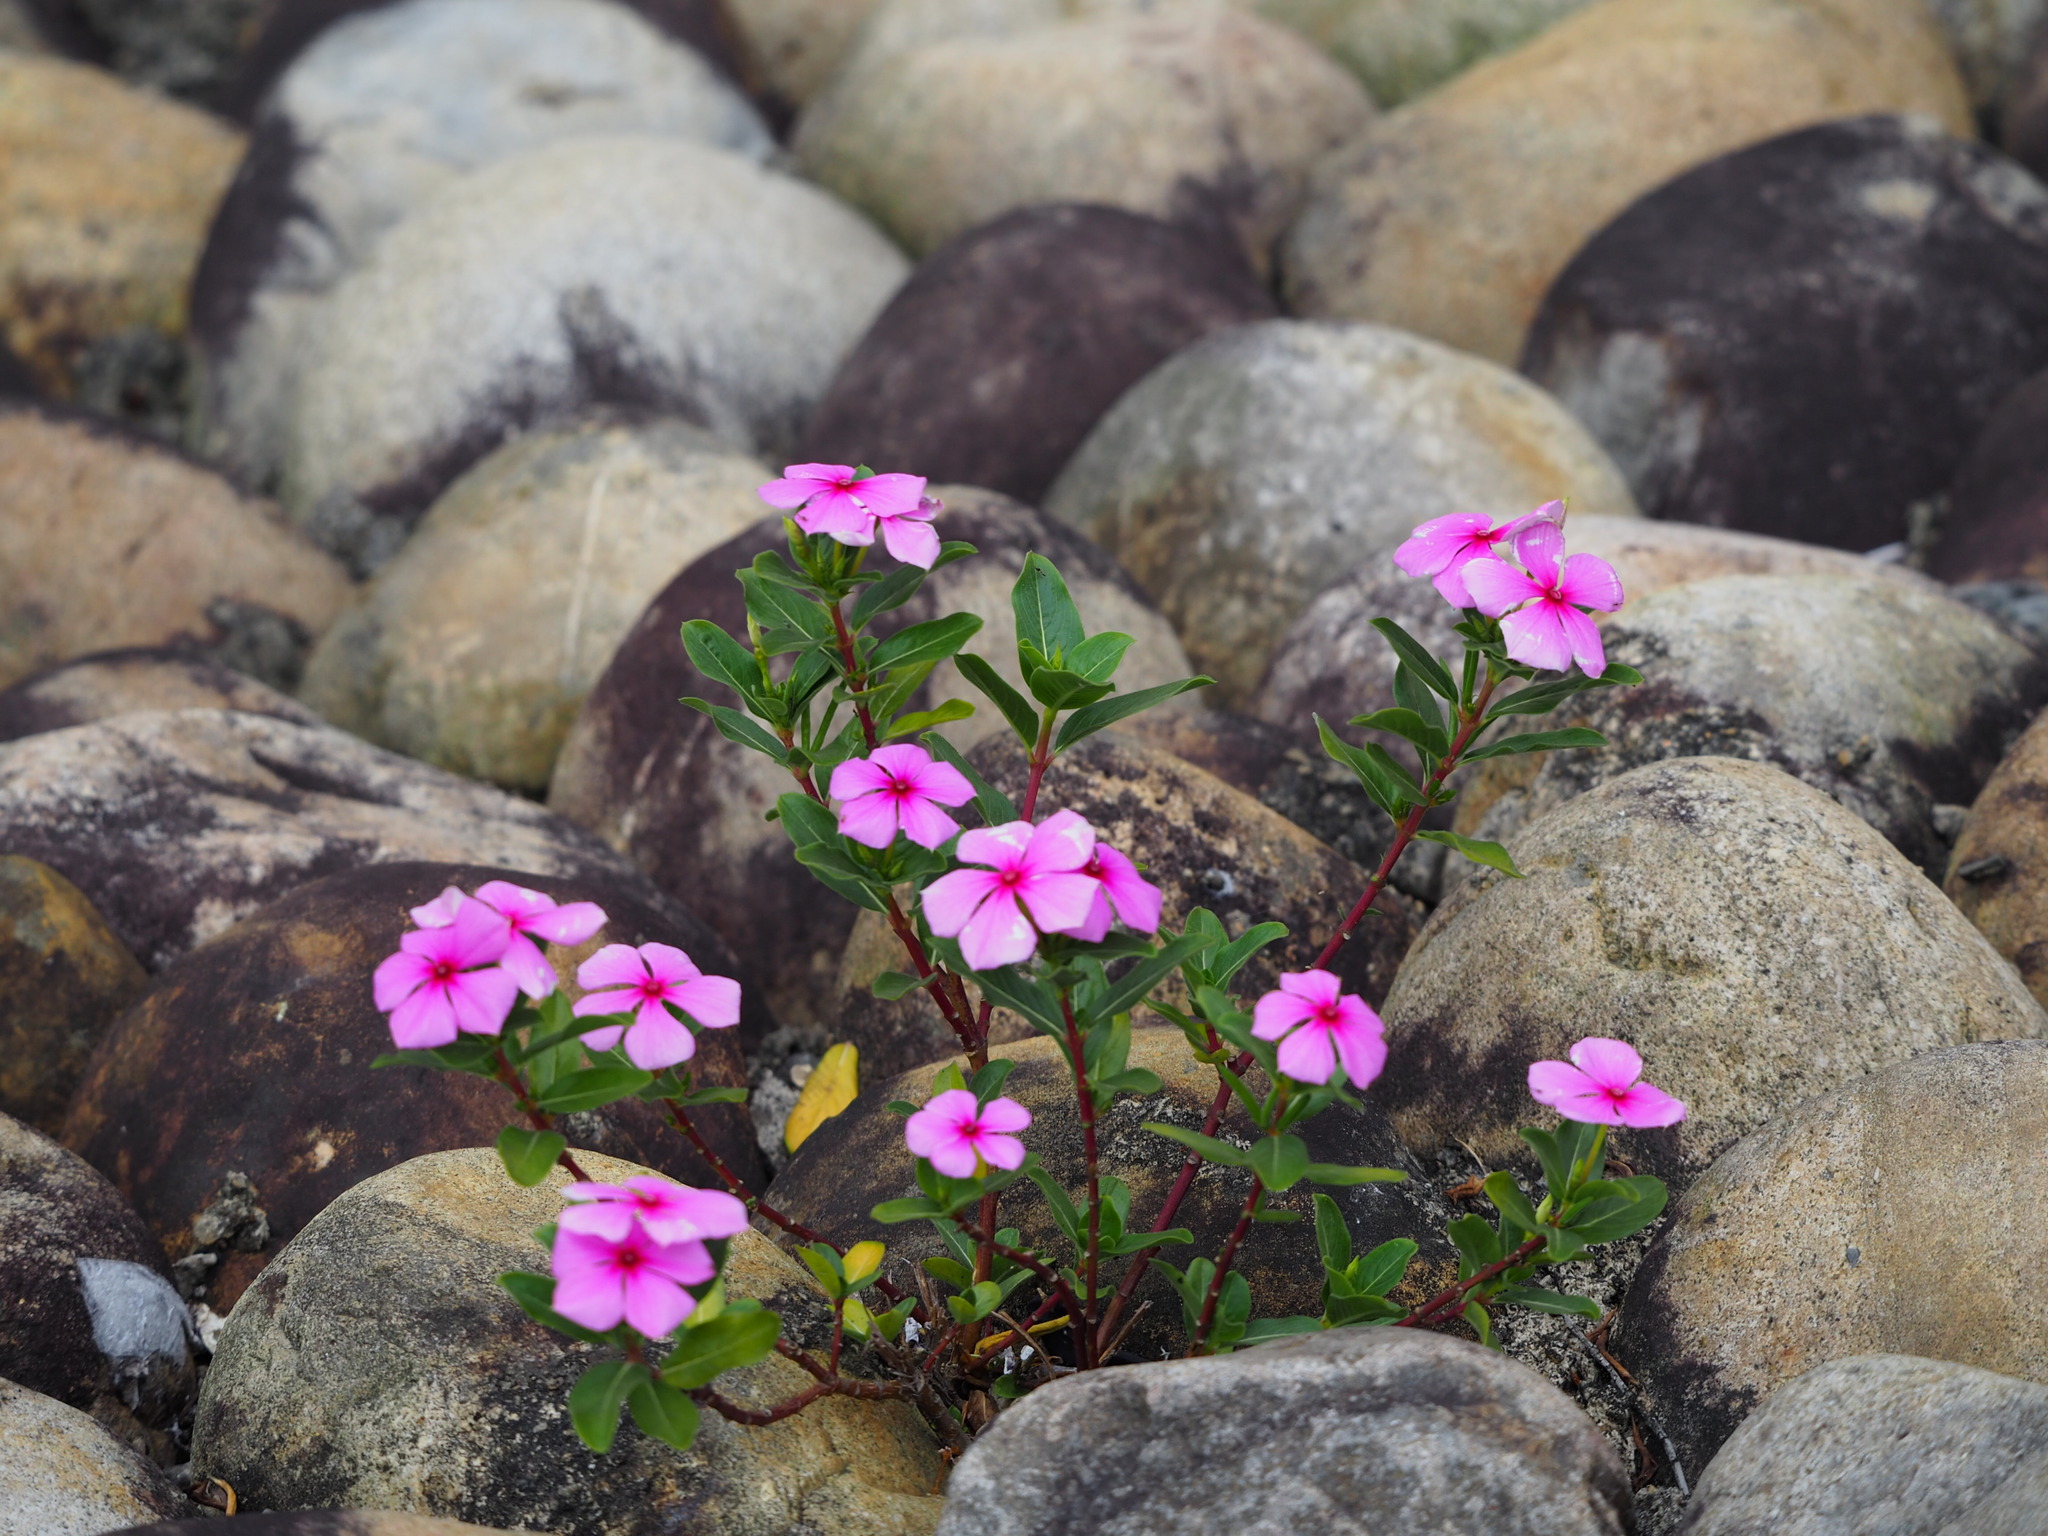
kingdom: Plantae
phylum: Tracheophyta
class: Magnoliopsida
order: Gentianales
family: Apocynaceae
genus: Catharanthus
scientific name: Catharanthus roseus
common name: Madagascar periwinkle
